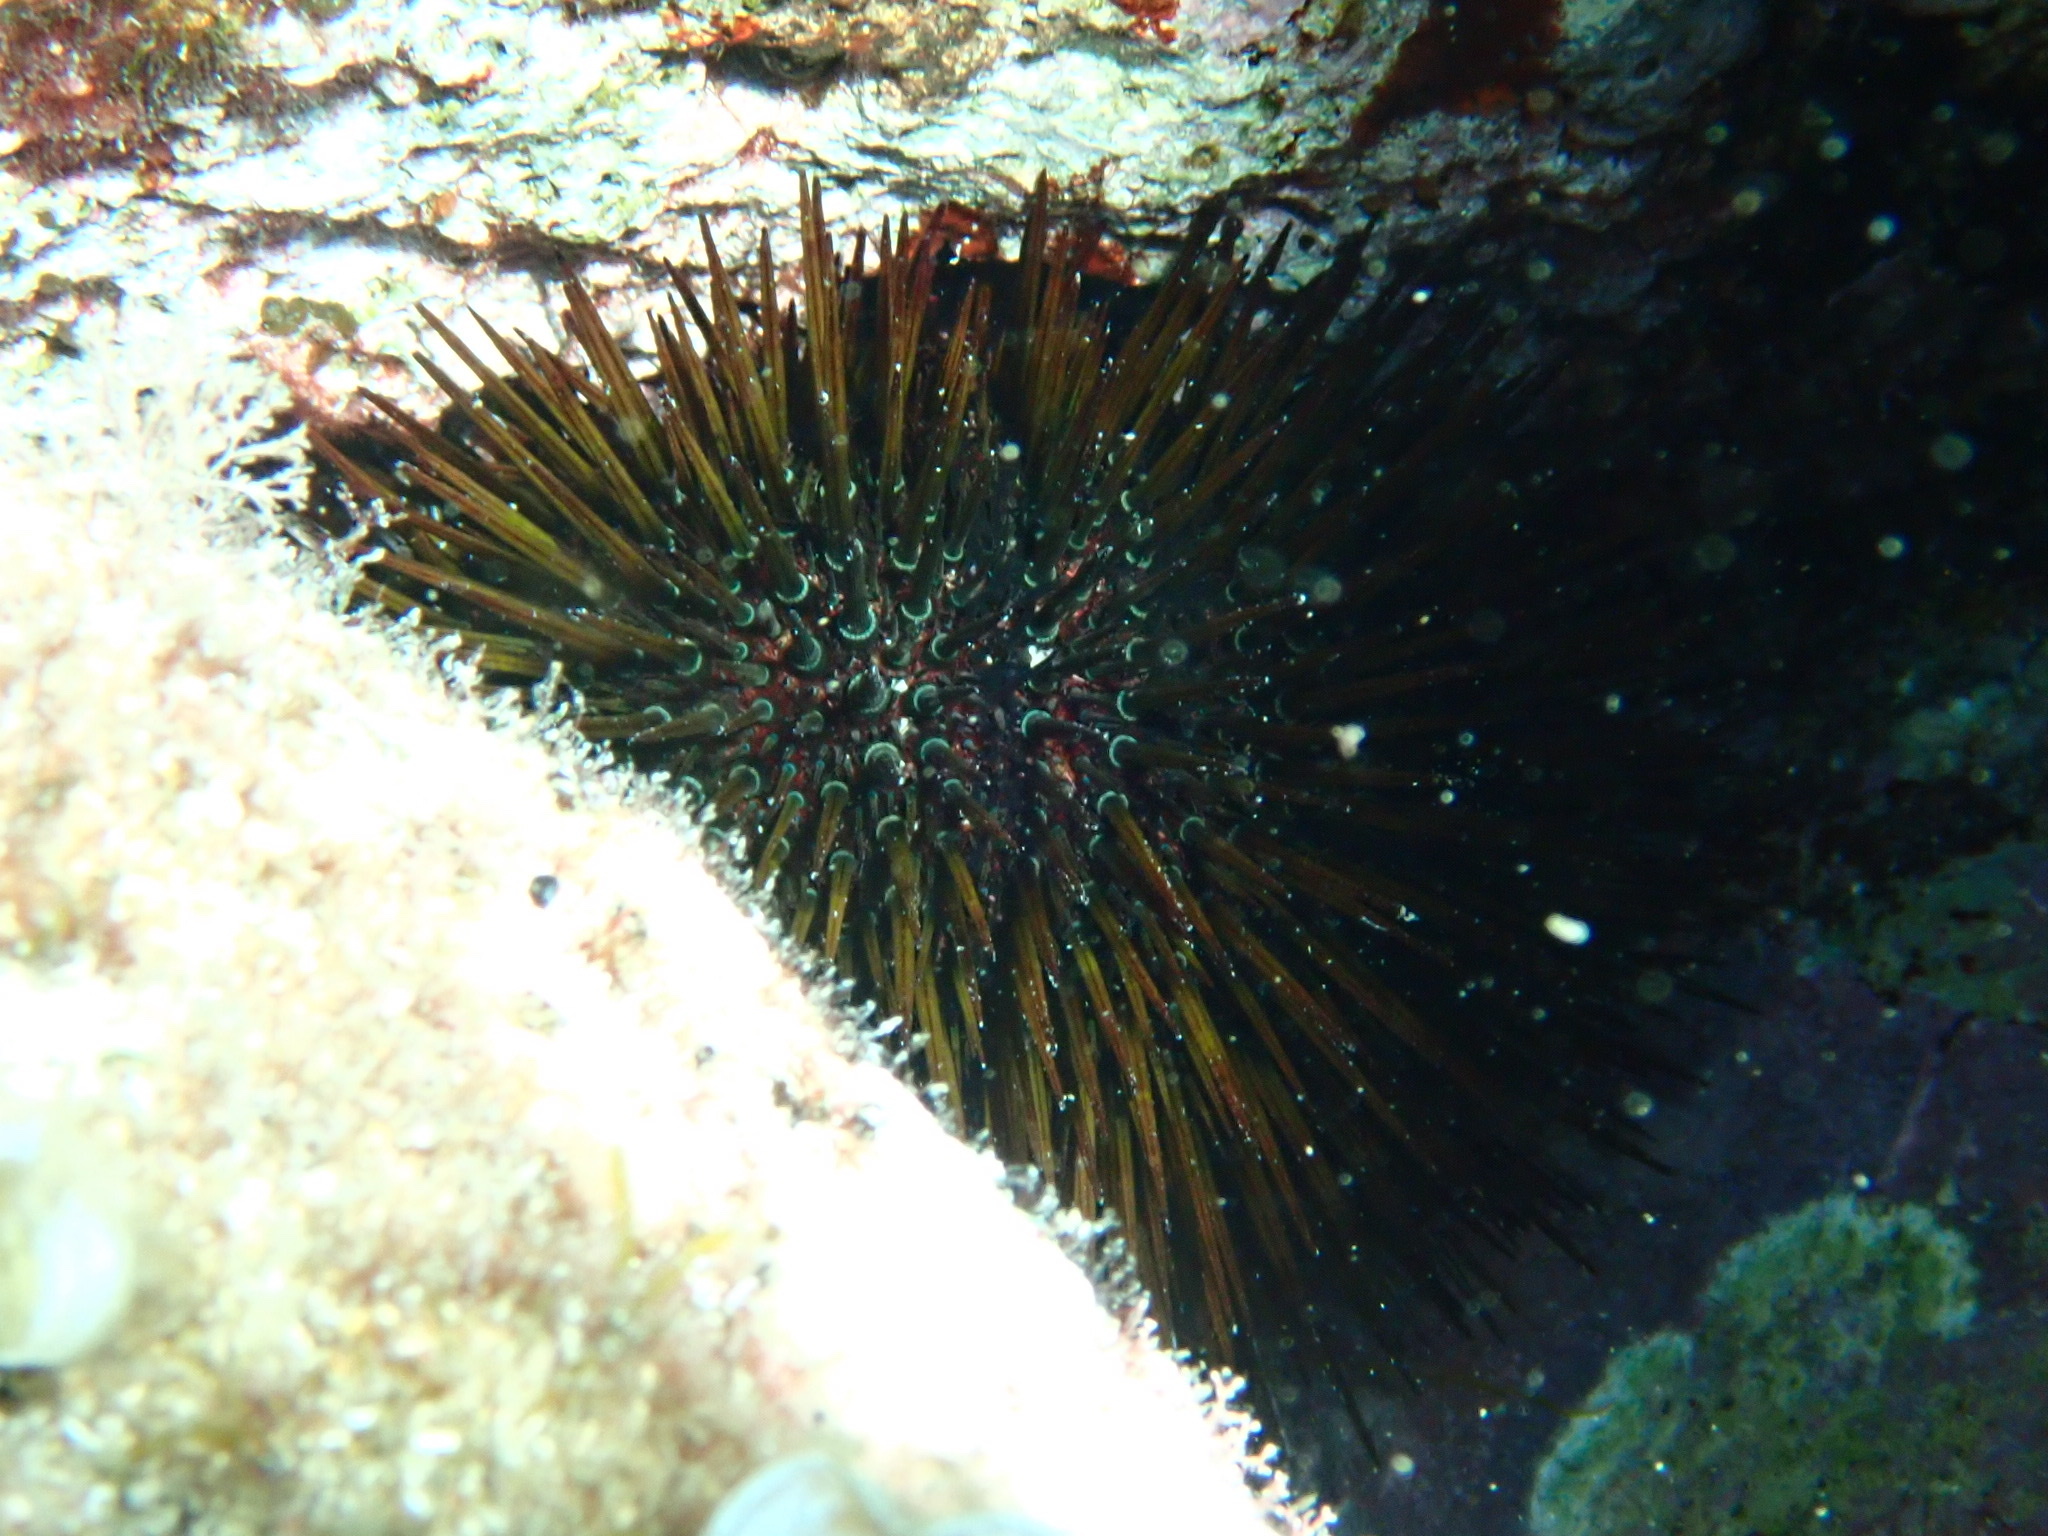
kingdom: Animalia
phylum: Echinodermata
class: Echinoidea
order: Camarodonta
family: Parechinidae
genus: Paracentrotus
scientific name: Paracentrotus lividus
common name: Purple sea urchin
